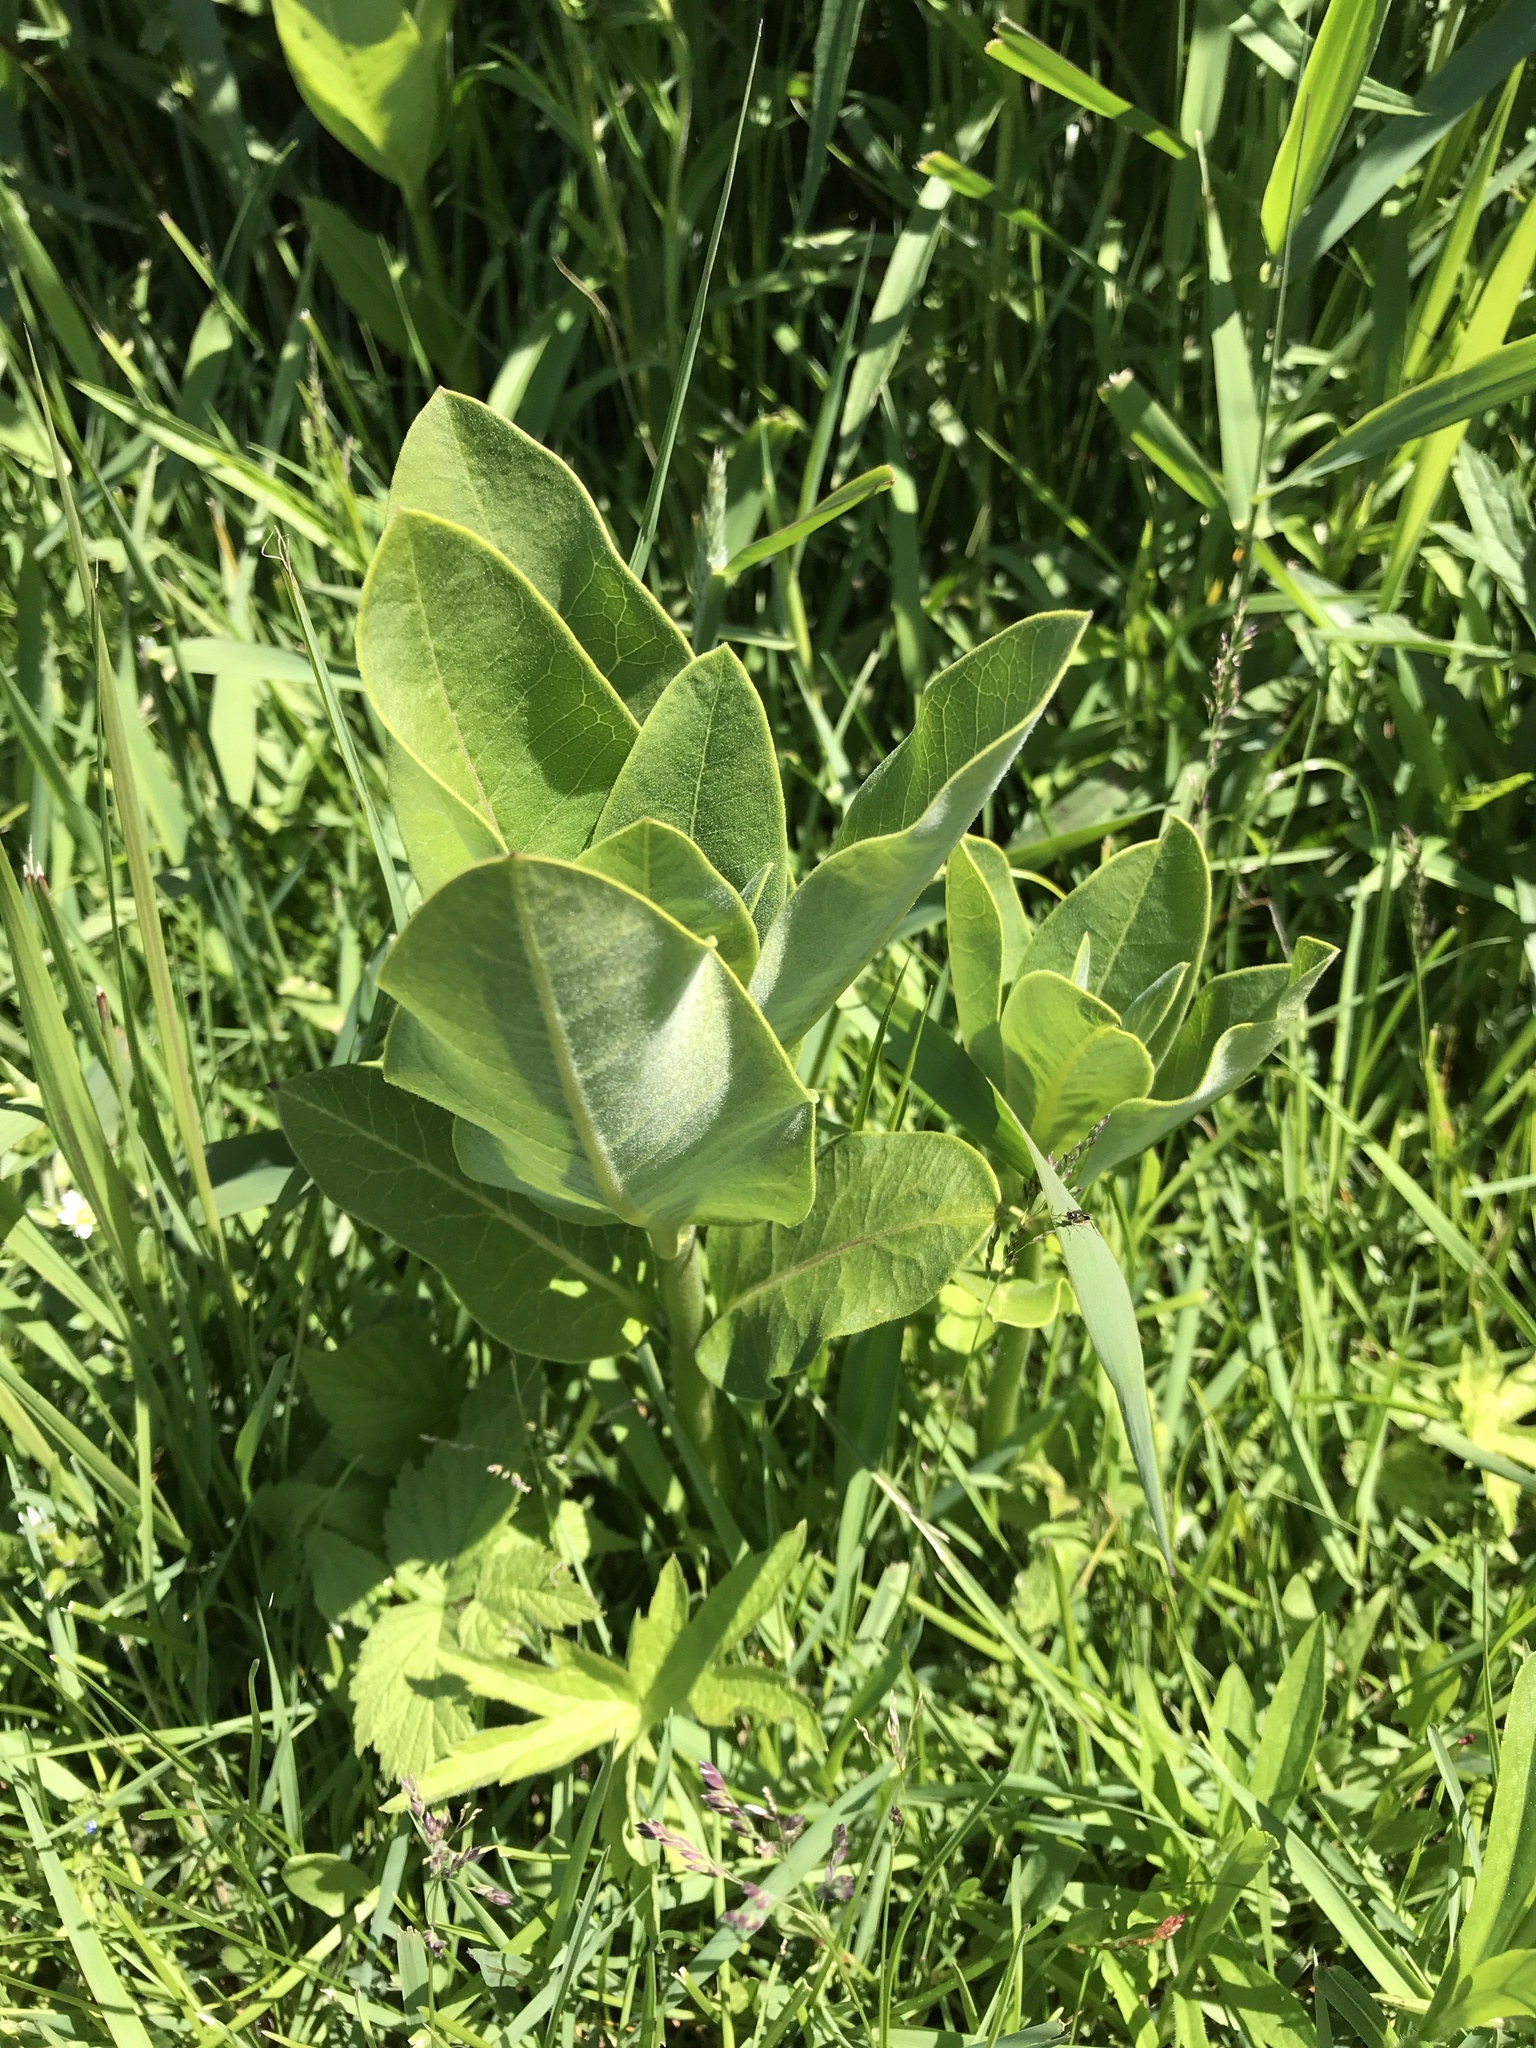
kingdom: Plantae
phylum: Tracheophyta
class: Magnoliopsida
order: Gentianales
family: Apocynaceae
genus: Asclepias
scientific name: Asclepias syriaca
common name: Common milkweed
